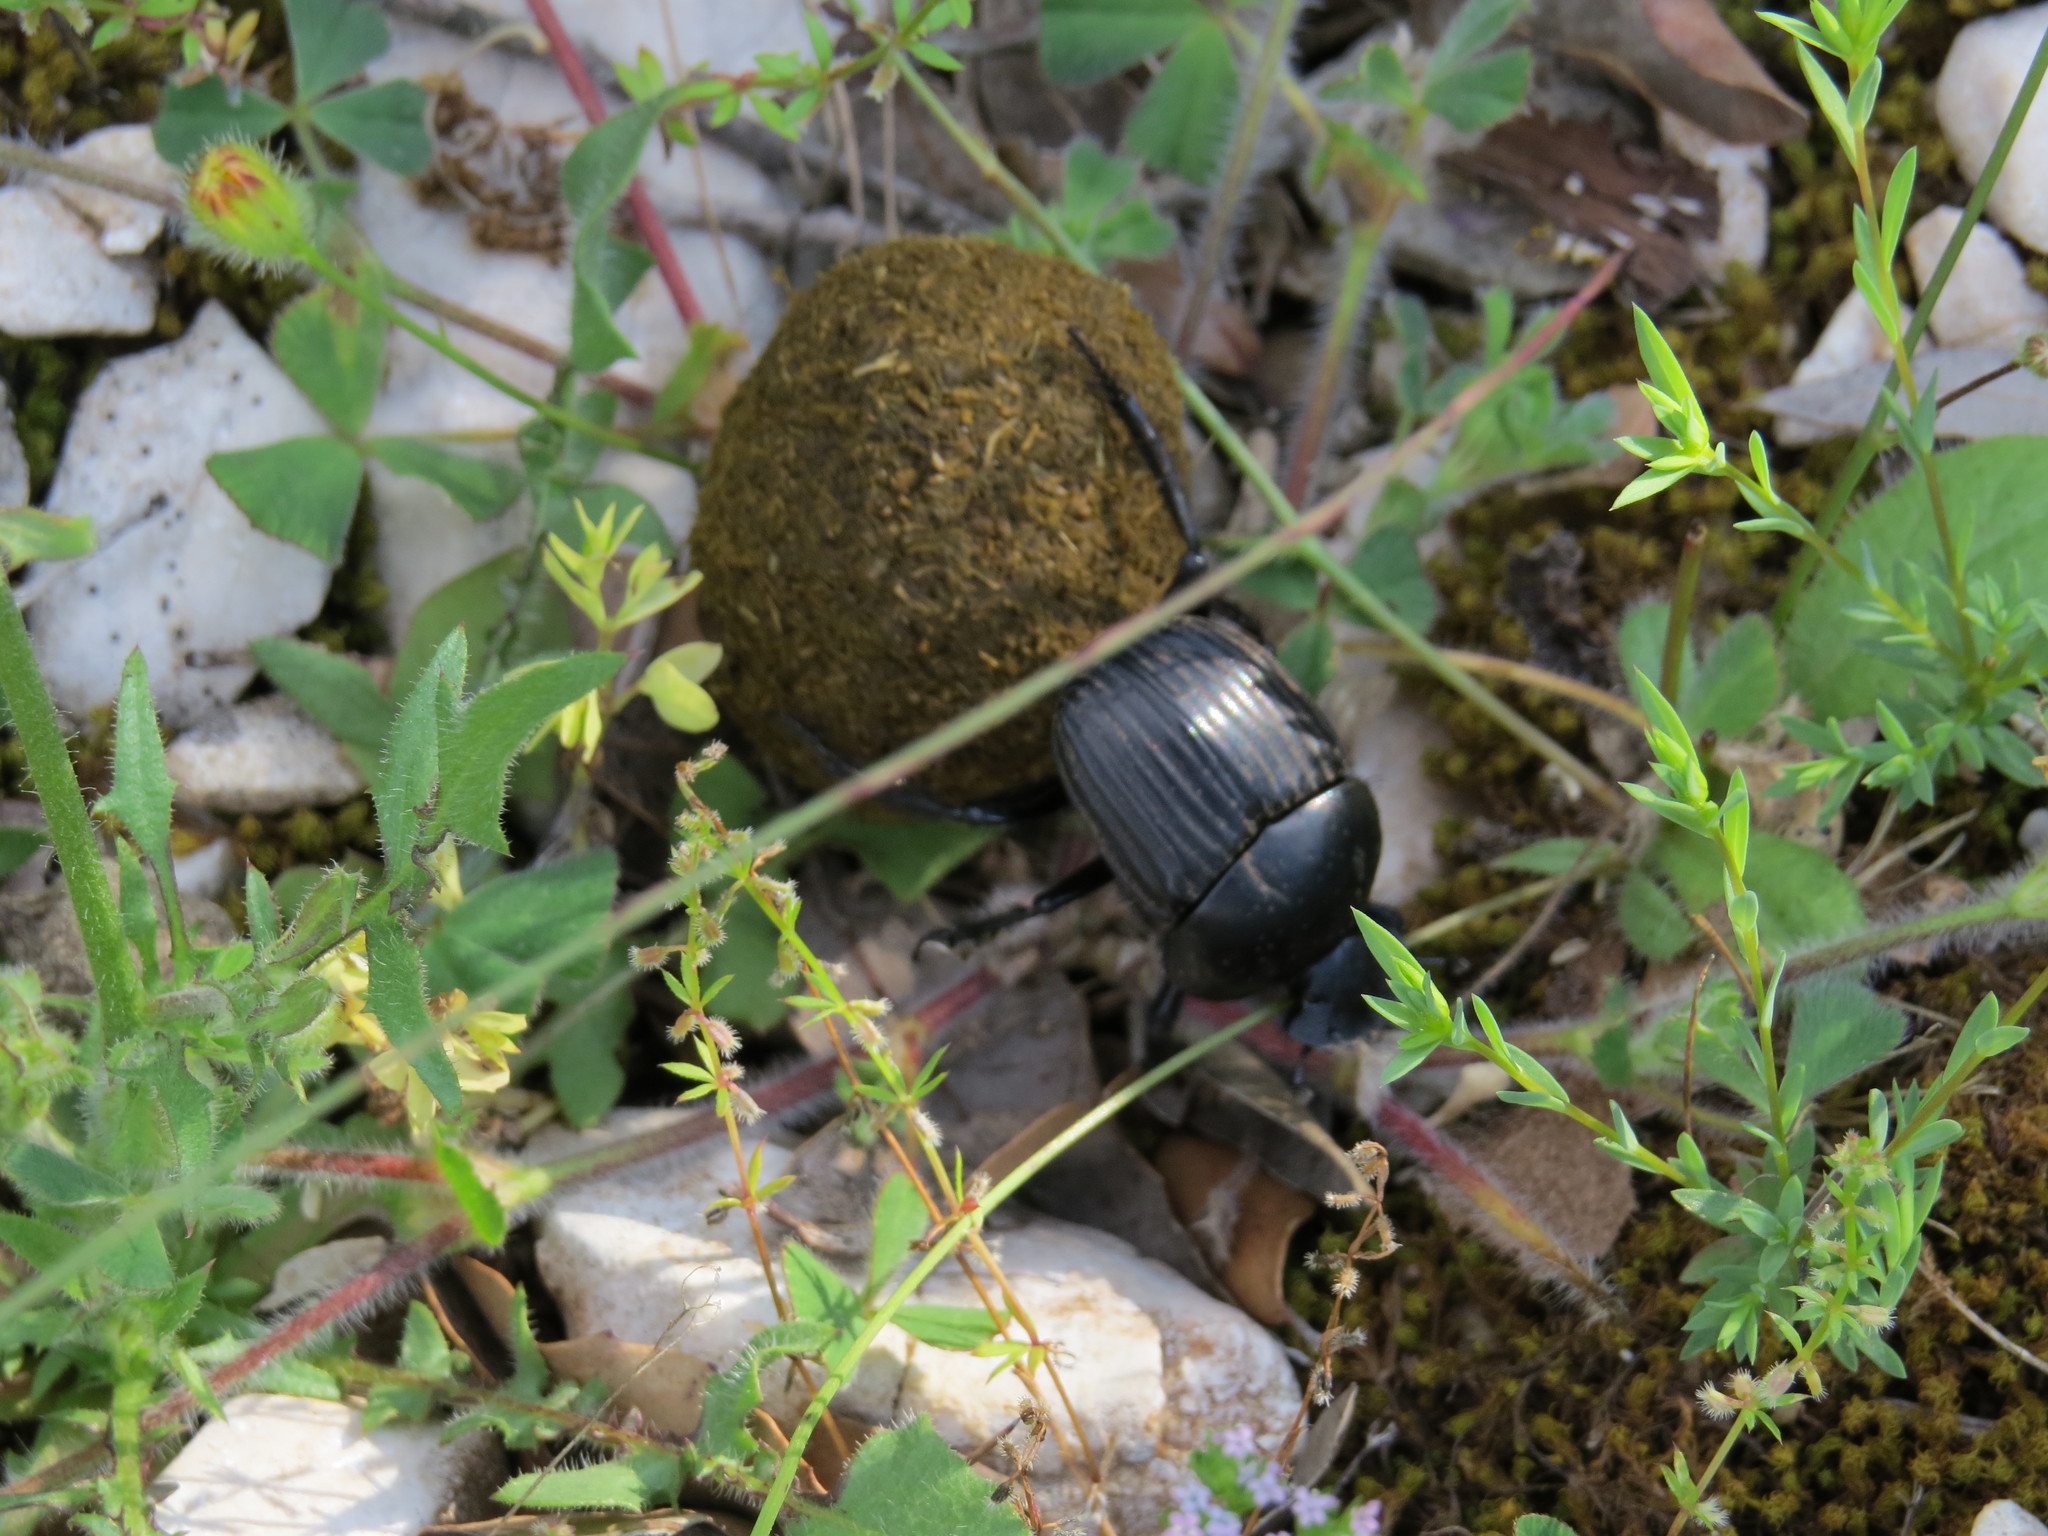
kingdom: Animalia
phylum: Arthropoda
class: Insecta
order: Coleoptera
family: Scarabaeidae
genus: Ateuchetus
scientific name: Ateuchetus laticollis
